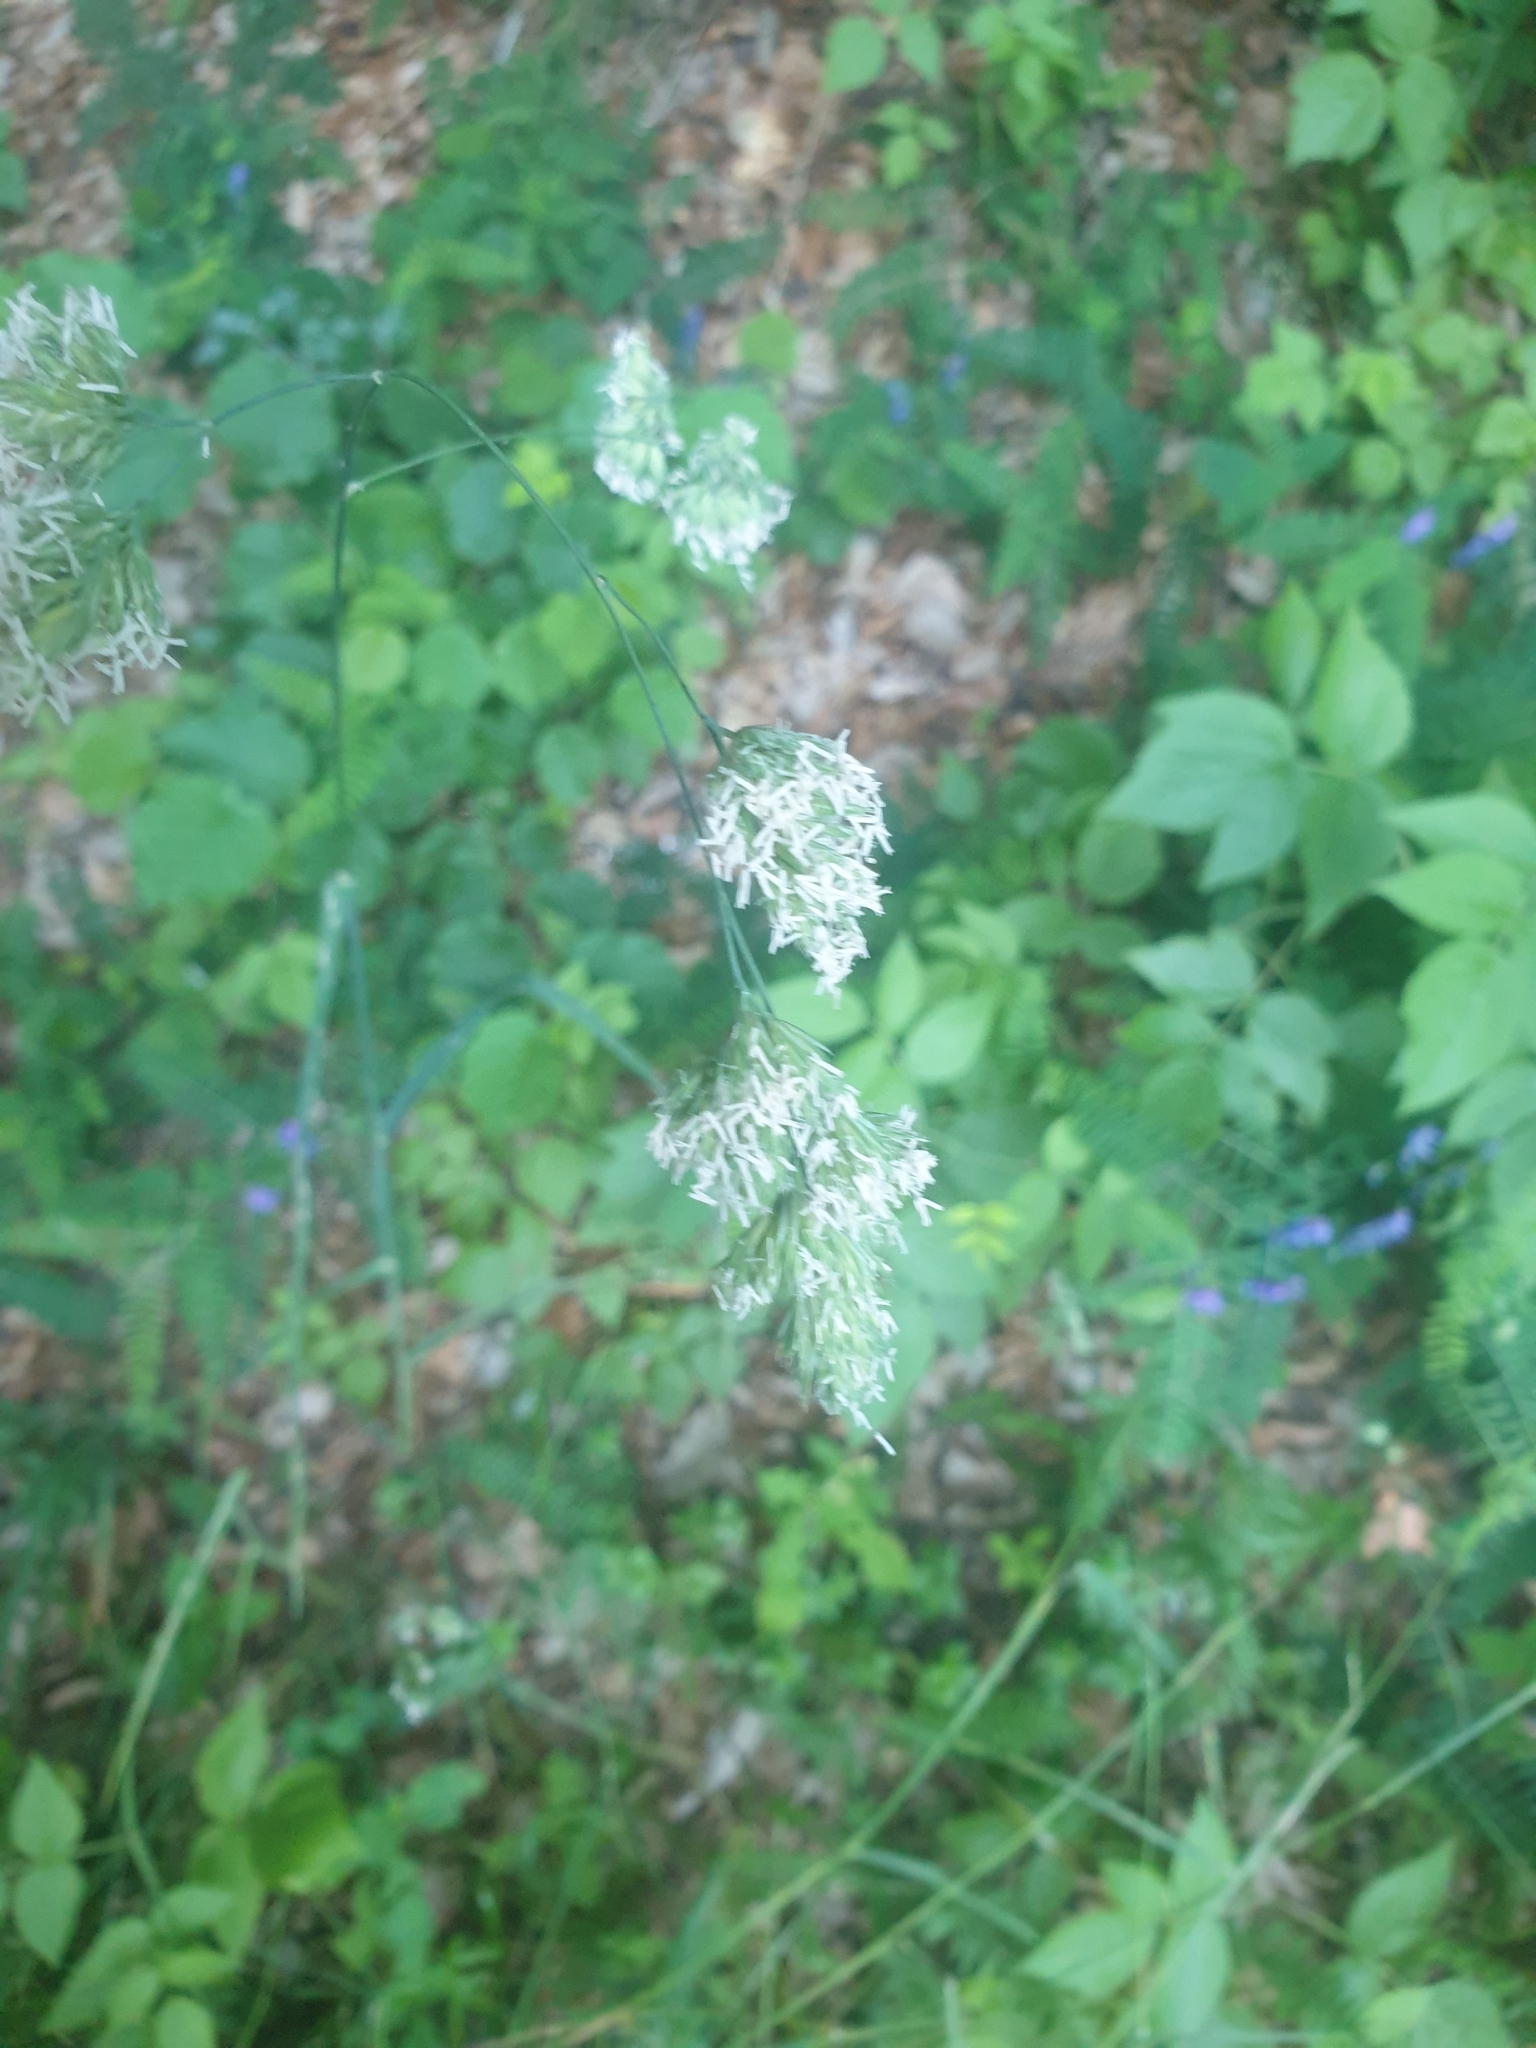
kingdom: Plantae
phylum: Tracheophyta
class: Liliopsida
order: Poales
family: Poaceae
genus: Dactylis
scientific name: Dactylis glomerata
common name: Orchardgrass
